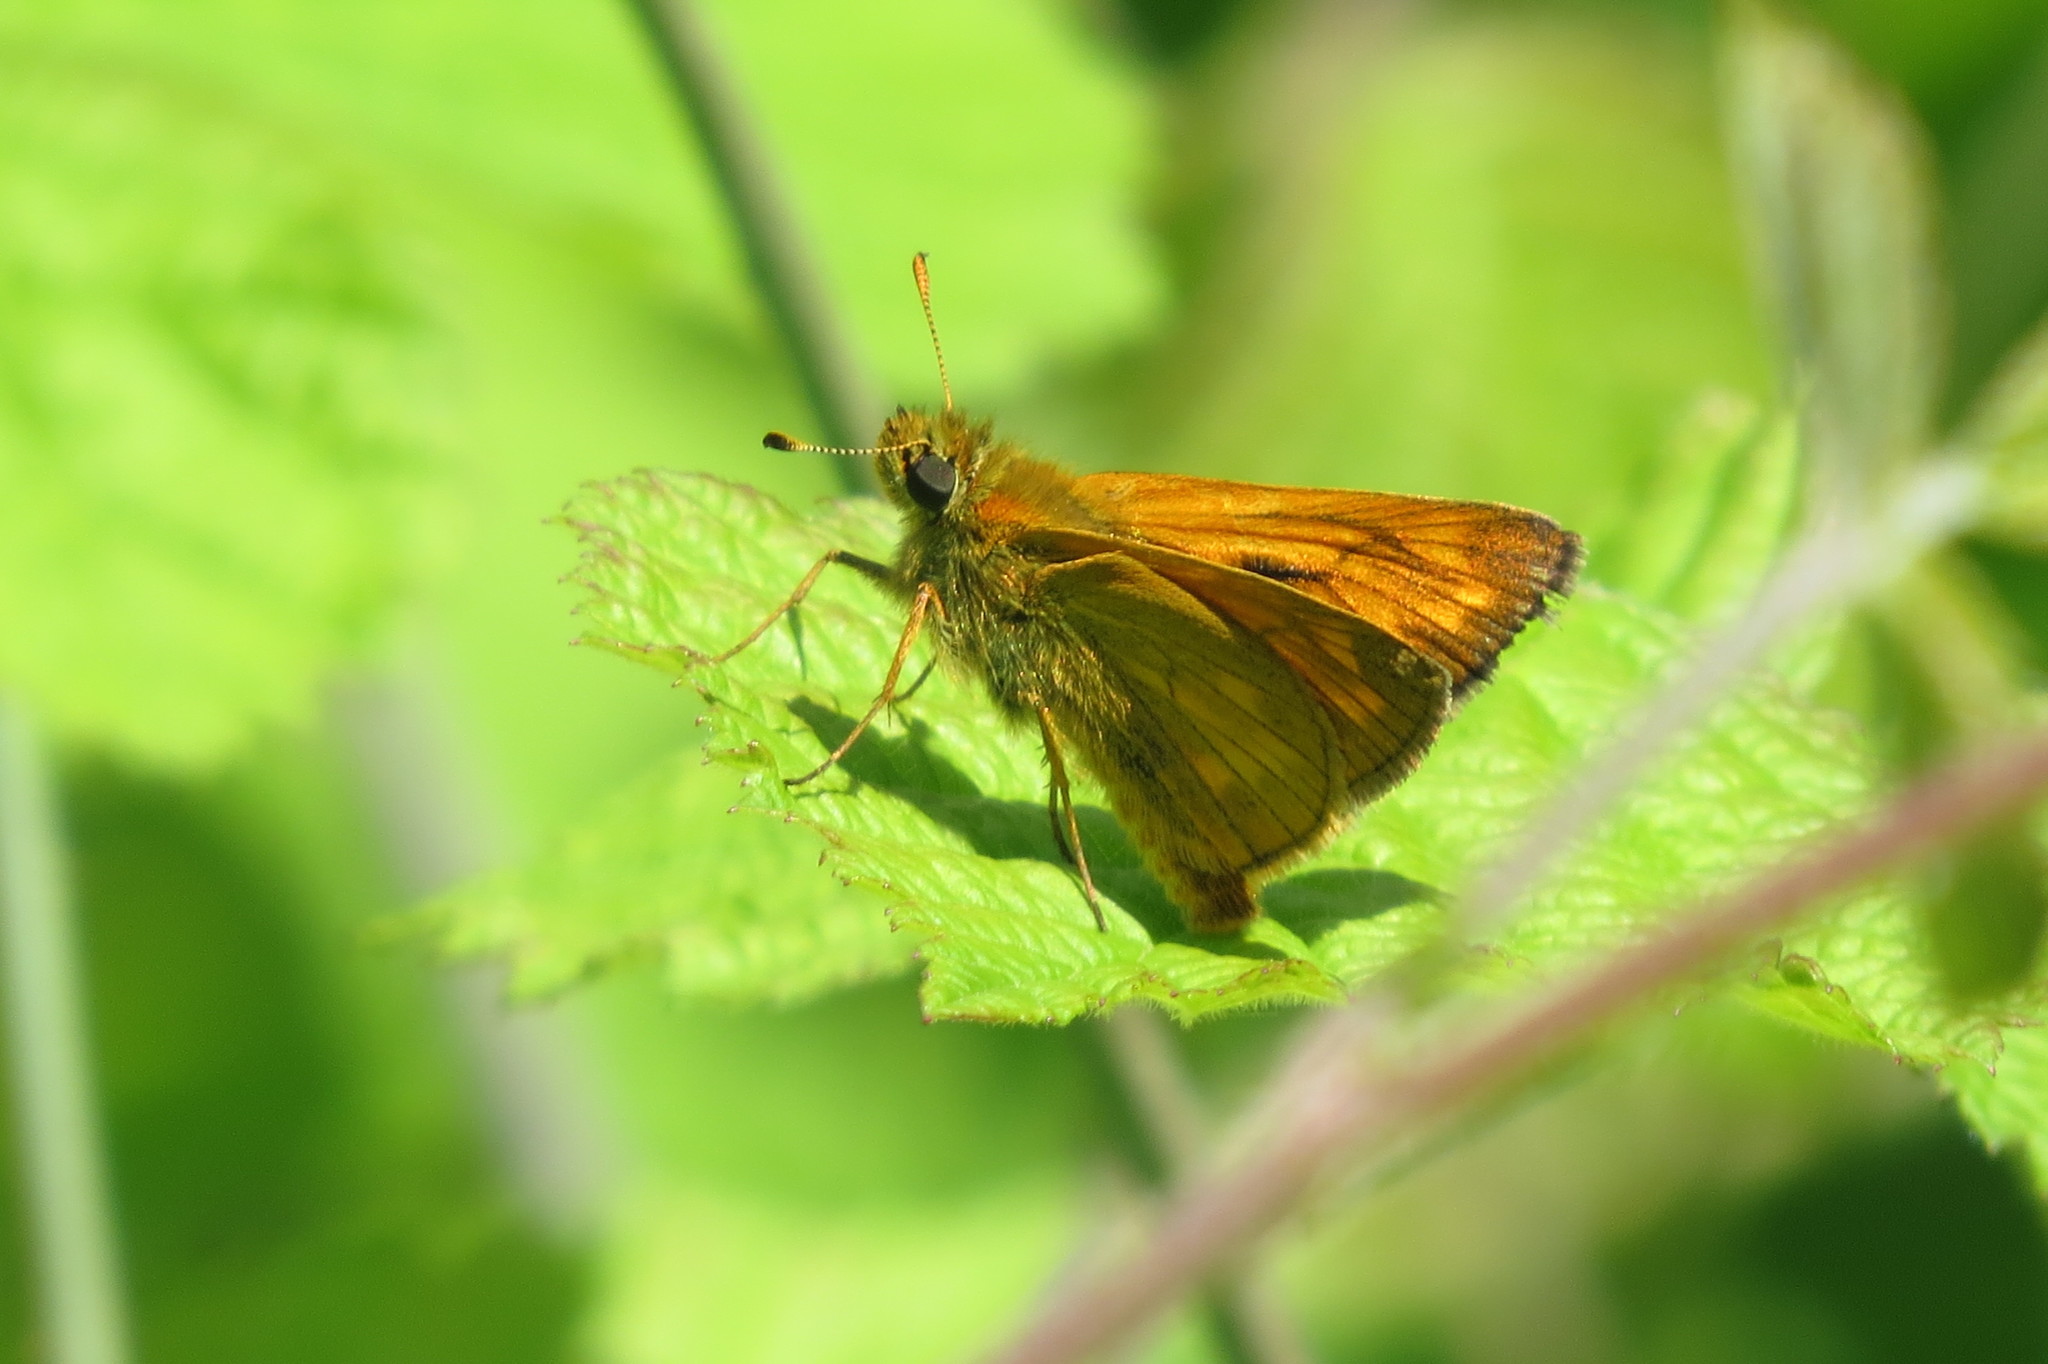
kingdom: Animalia
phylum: Arthropoda
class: Insecta
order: Lepidoptera
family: Hesperiidae
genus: Ochlodes
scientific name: Ochlodes venata
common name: Large skipper
